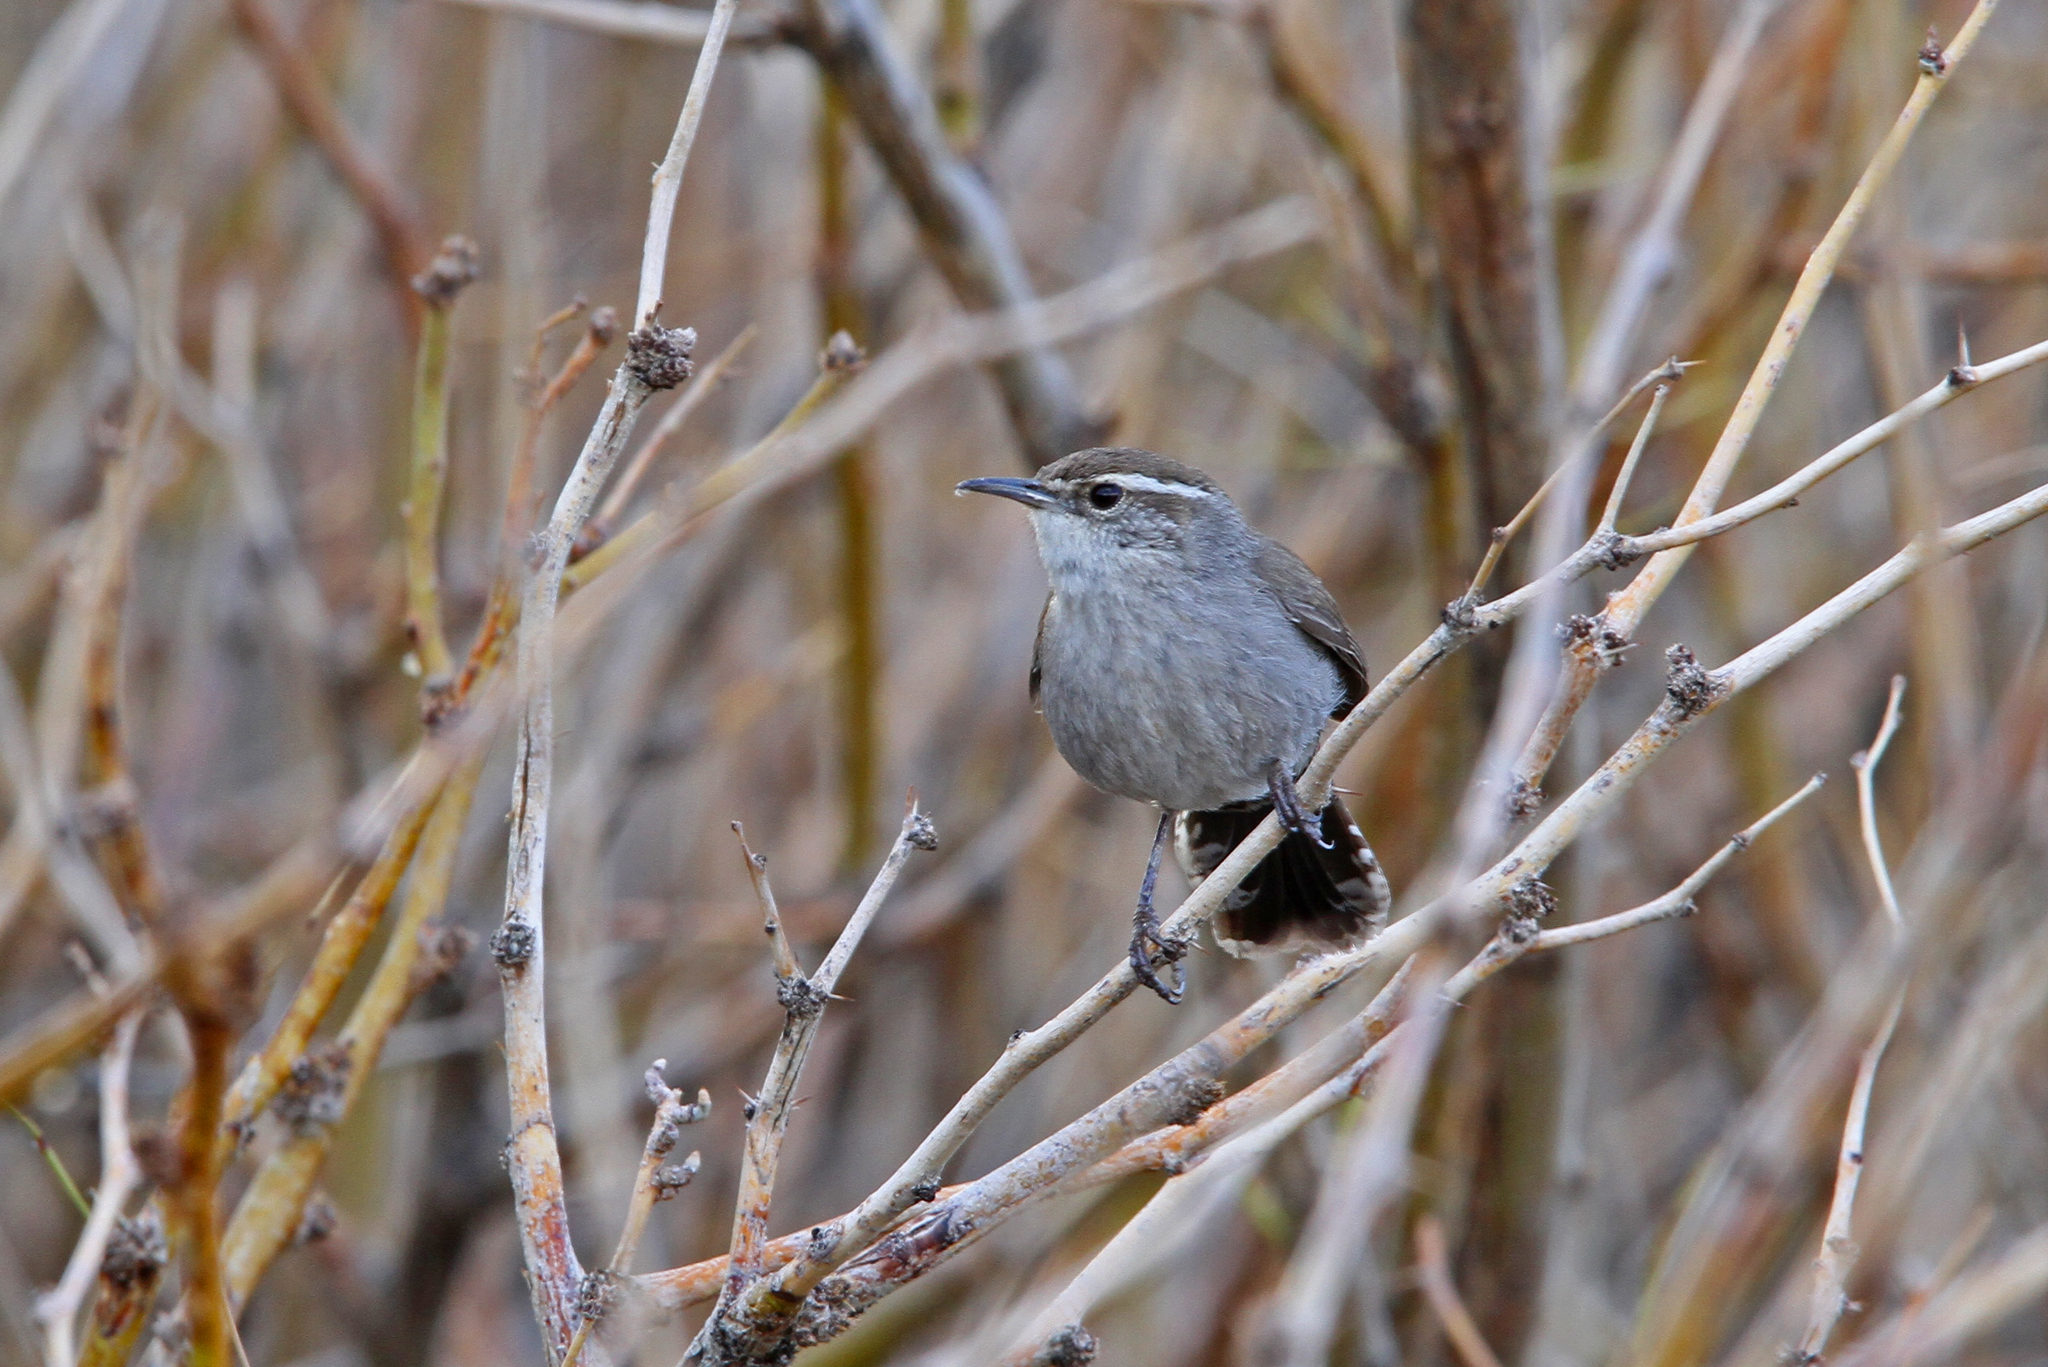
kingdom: Animalia
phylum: Chordata
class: Aves
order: Passeriformes
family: Troglodytidae
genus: Thryomanes
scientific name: Thryomanes bewickii
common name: Bewick's wren
